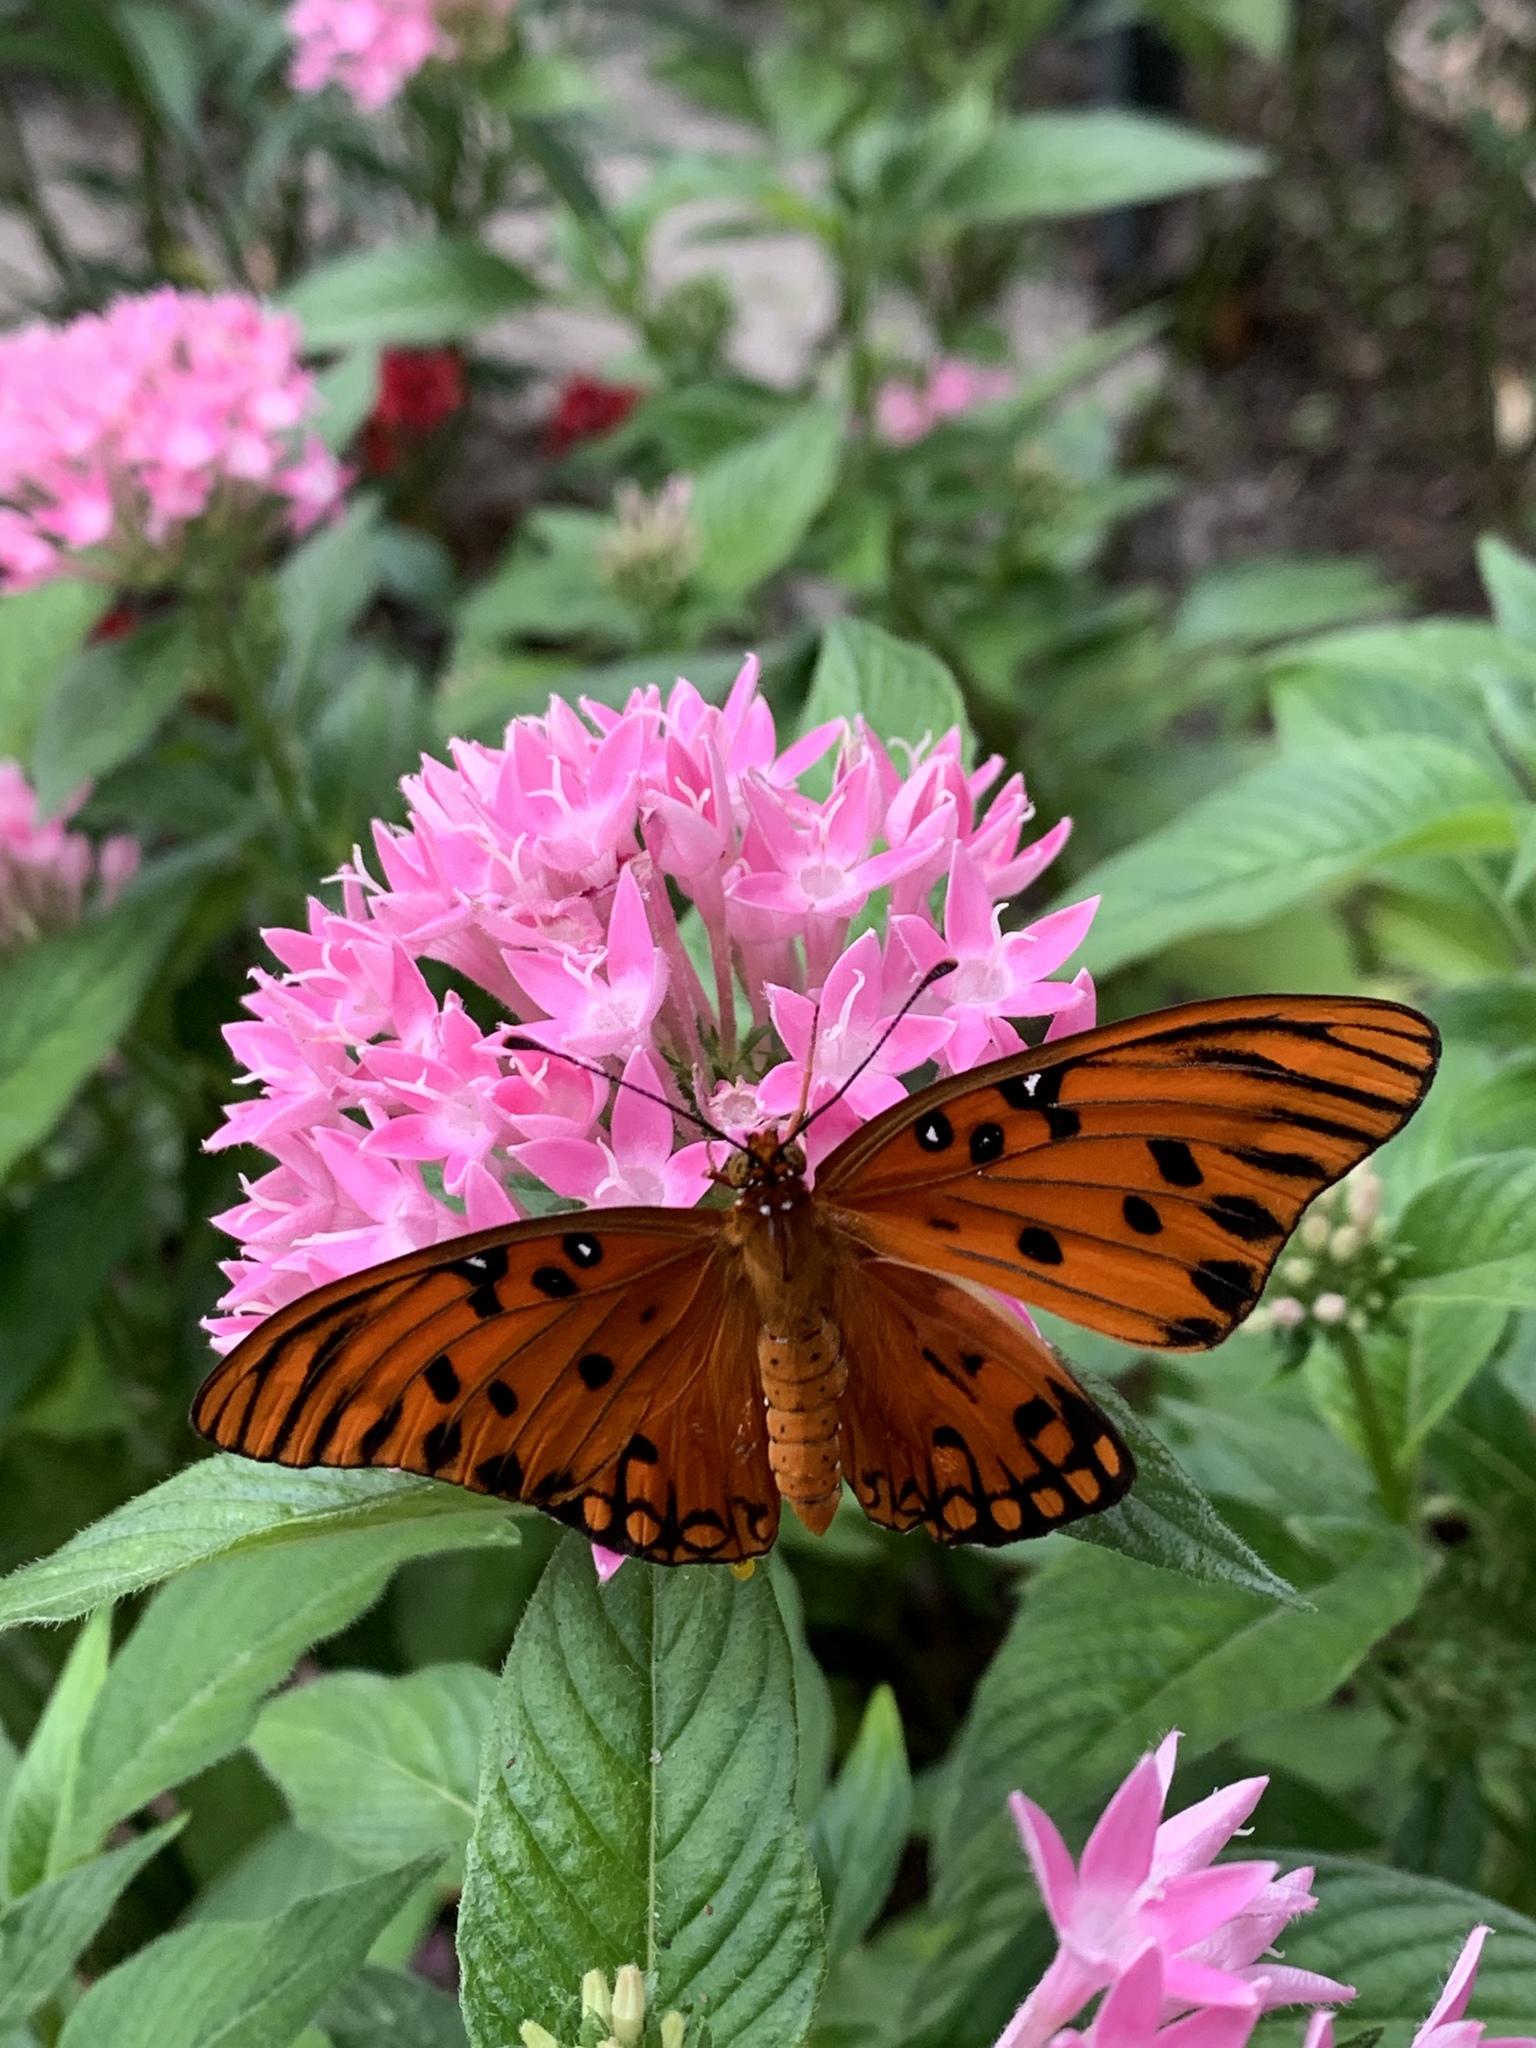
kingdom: Animalia
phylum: Arthropoda
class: Insecta
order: Lepidoptera
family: Nymphalidae
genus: Dione
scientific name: Dione vanillae
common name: Gulf fritillary
